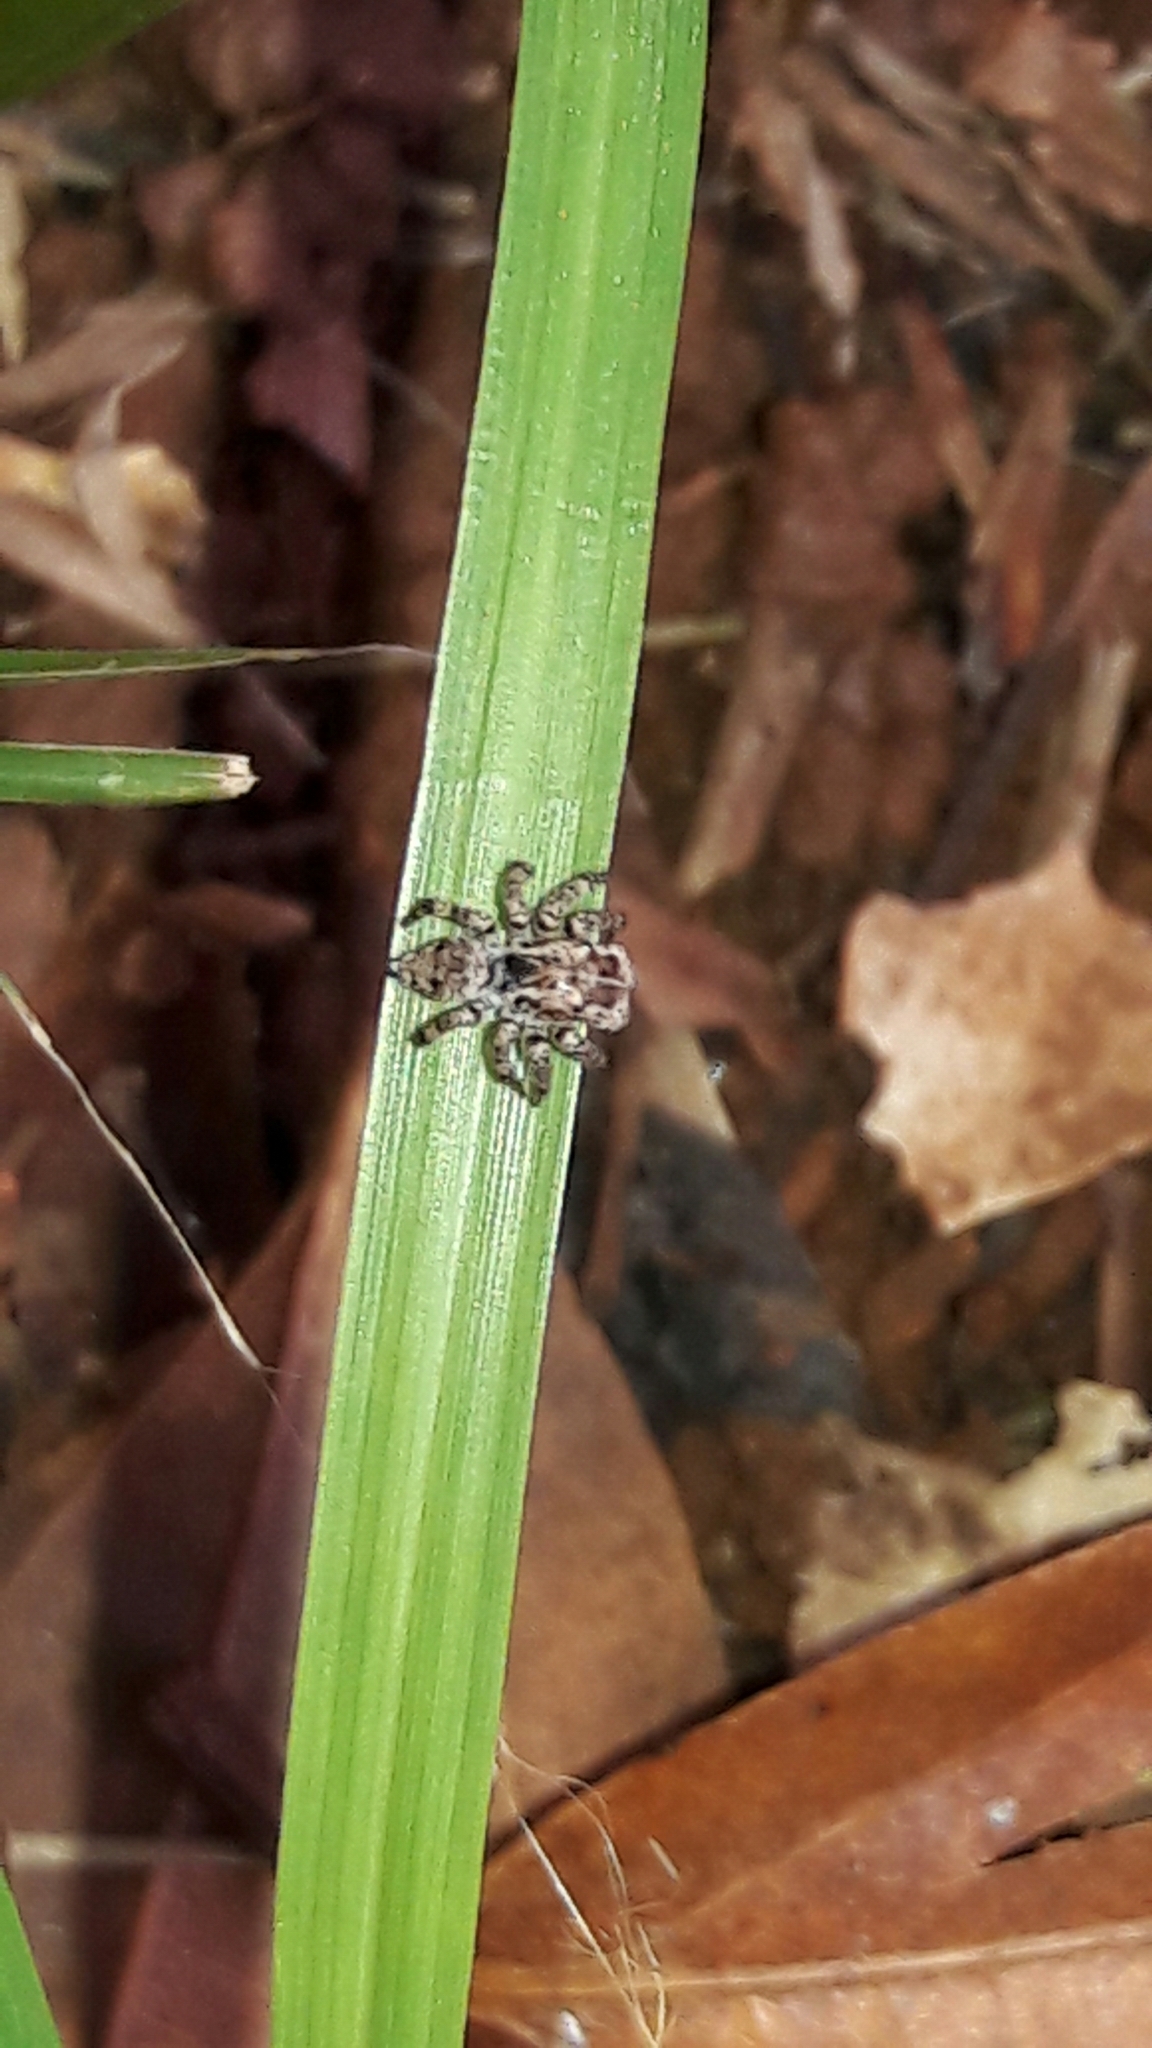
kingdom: Animalia
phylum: Arthropoda
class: Arachnida
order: Araneae
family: Salticidae
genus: Sumampattus
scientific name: Sumampattus quinqueradiatus
